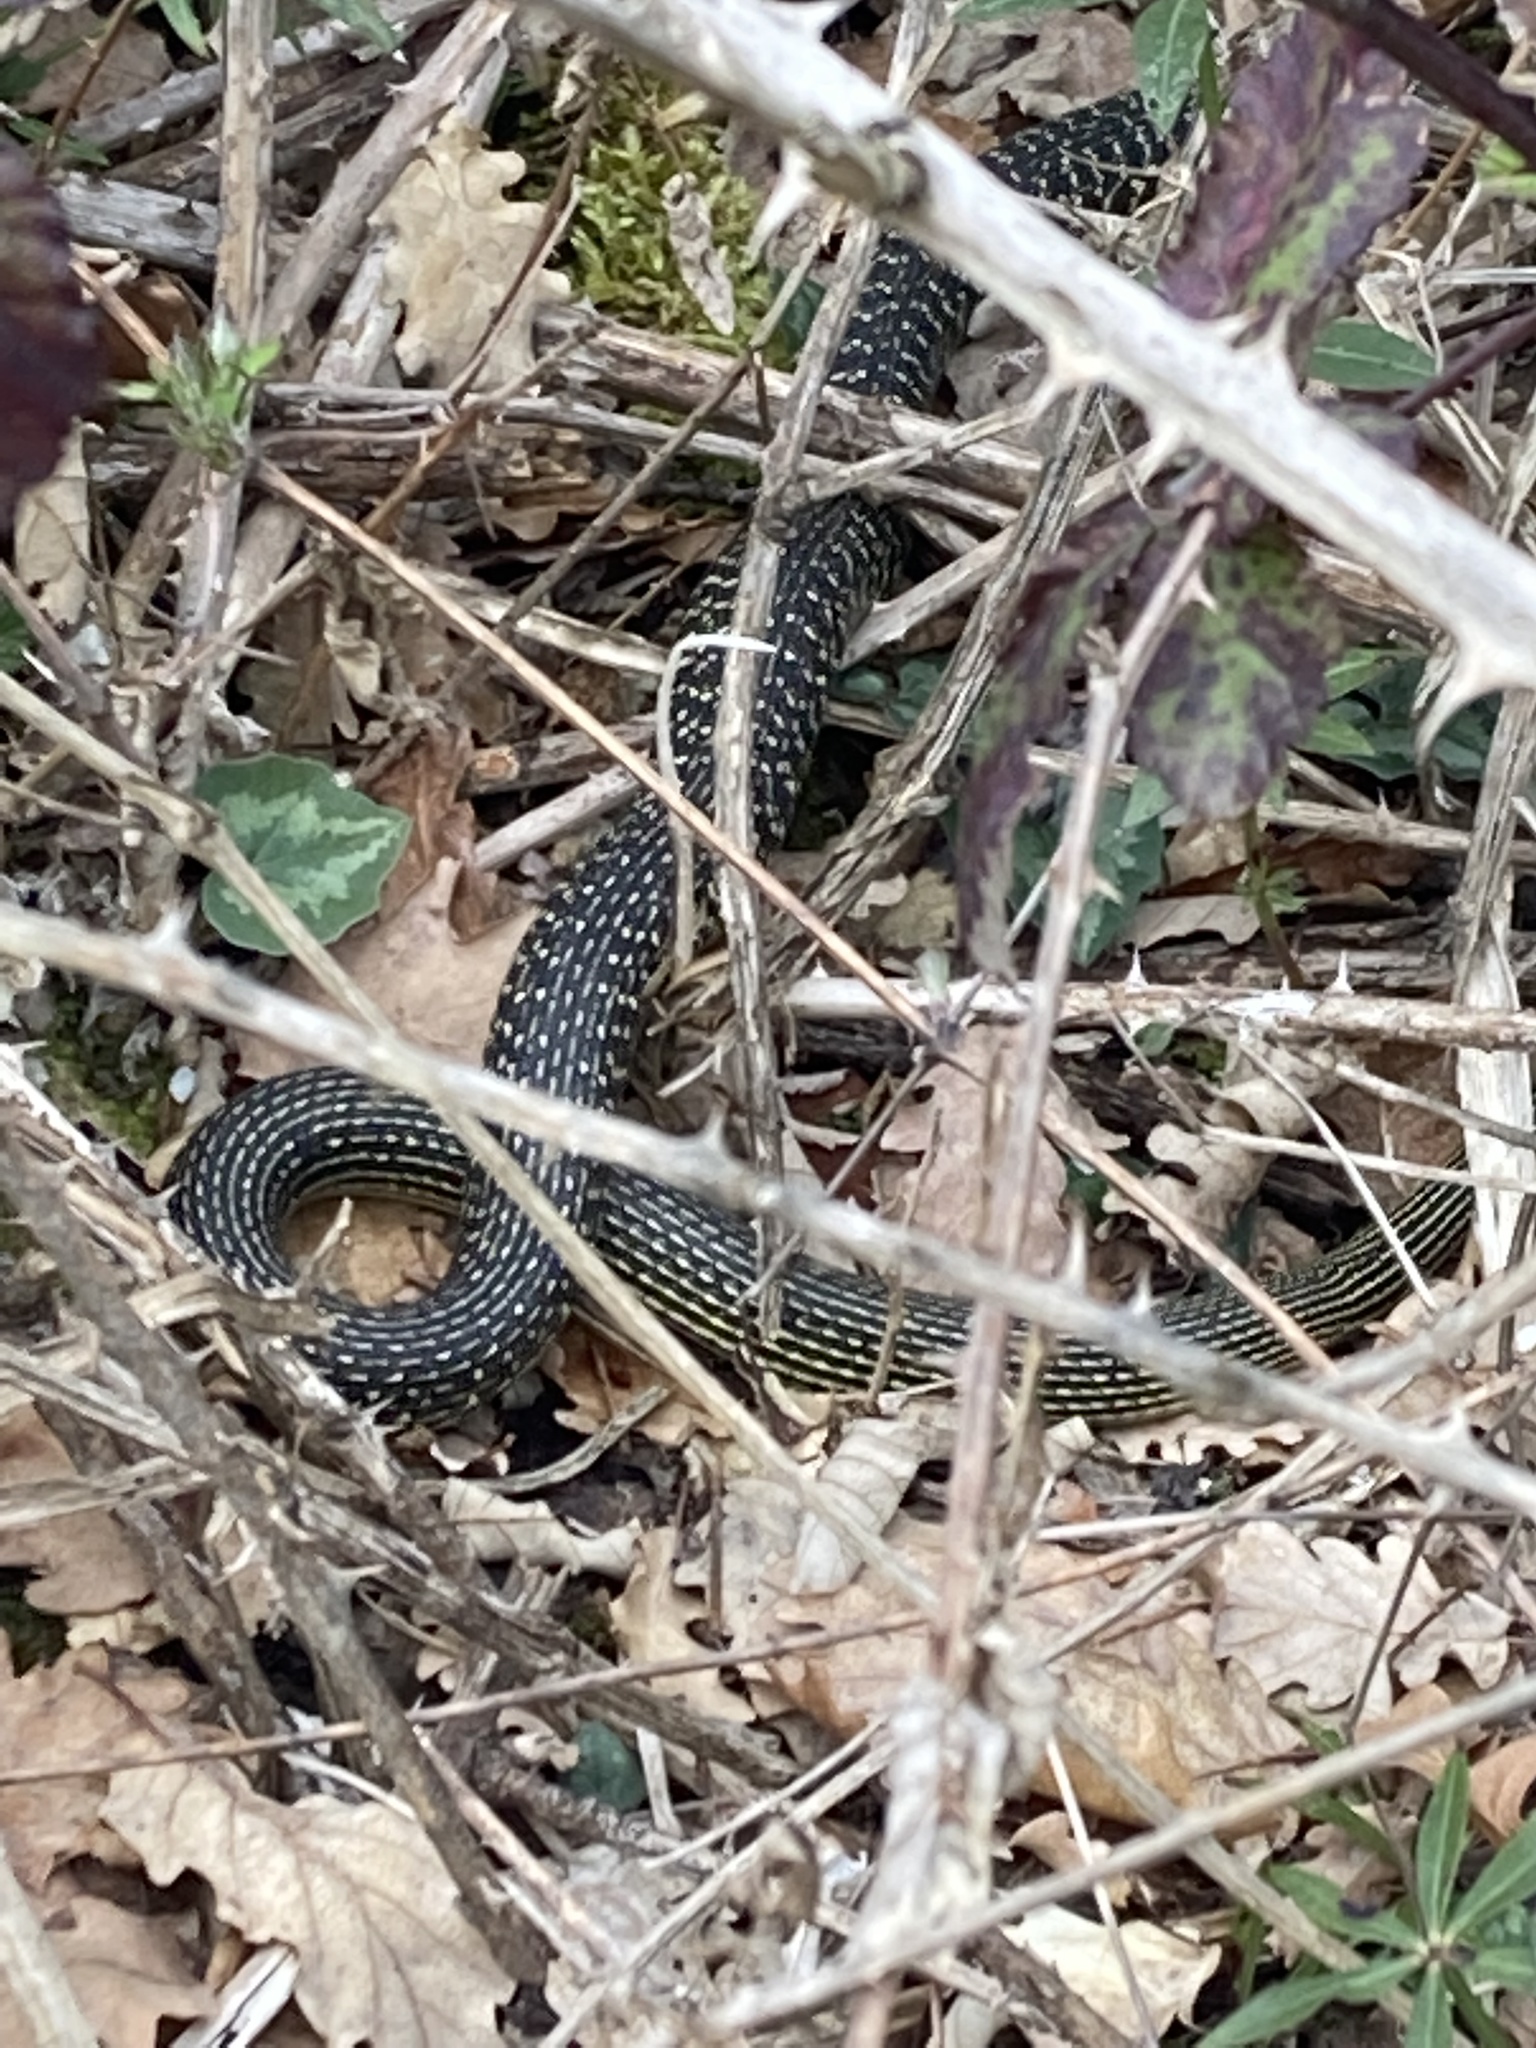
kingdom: Animalia
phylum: Chordata
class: Squamata
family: Colubridae
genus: Hierophis
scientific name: Hierophis viridiflavus
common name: Green whip snake
